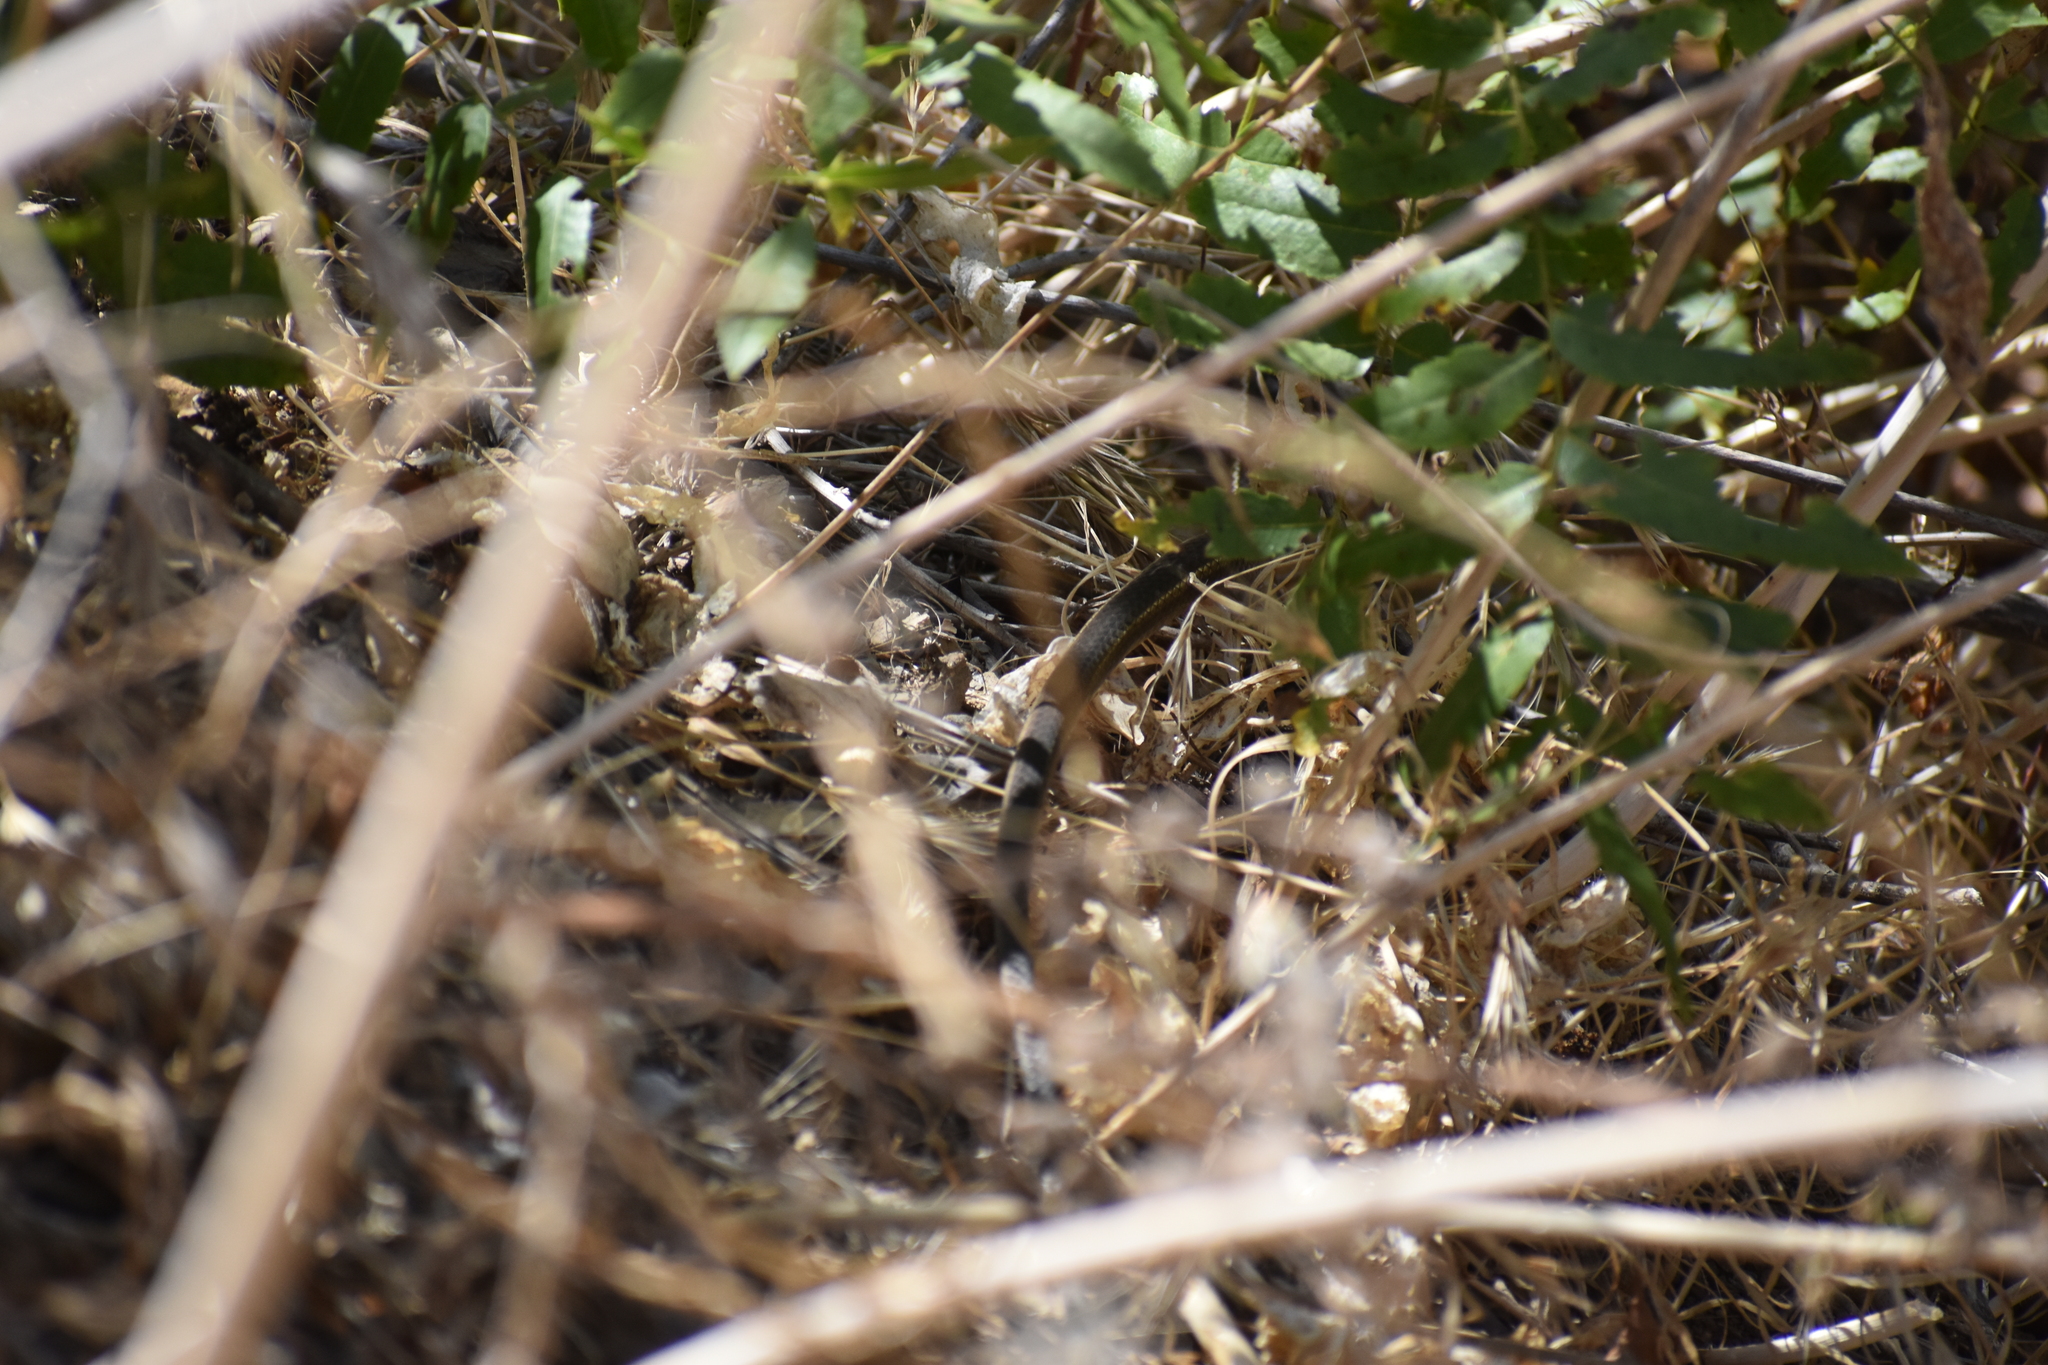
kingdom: Animalia
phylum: Chordata
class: Squamata
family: Colubridae
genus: Masticophis
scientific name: Masticophis lateralis
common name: Striped racer
